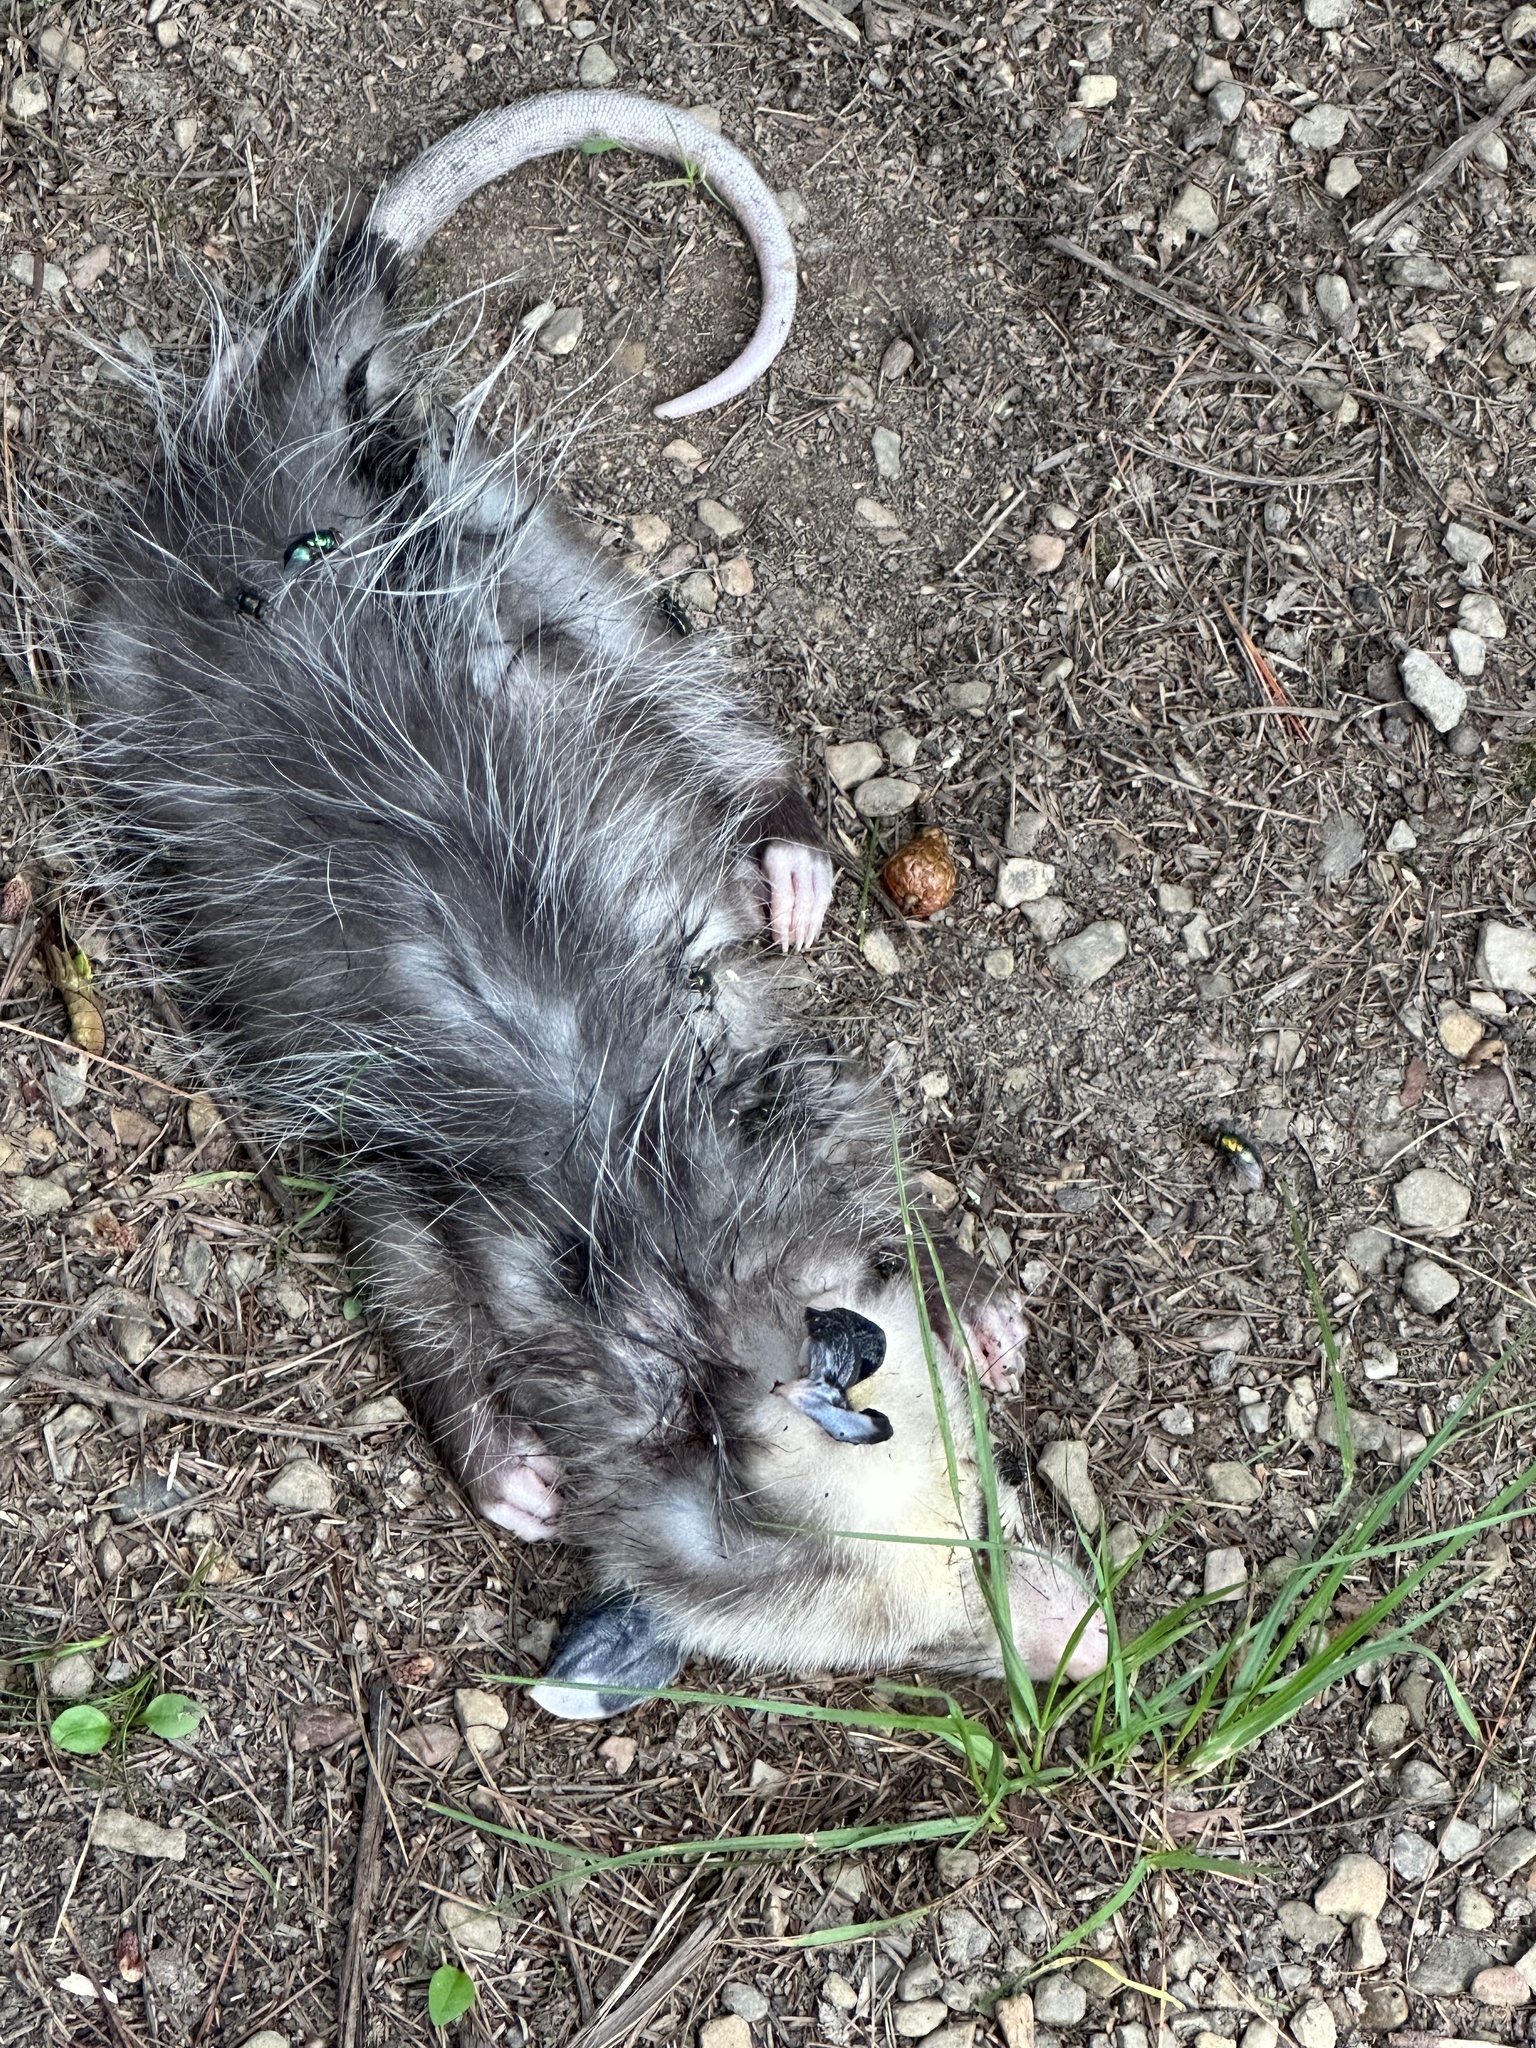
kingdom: Animalia
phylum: Chordata
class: Mammalia
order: Didelphimorphia
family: Didelphidae
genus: Didelphis
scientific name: Didelphis virginiana
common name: Virginia opossum
